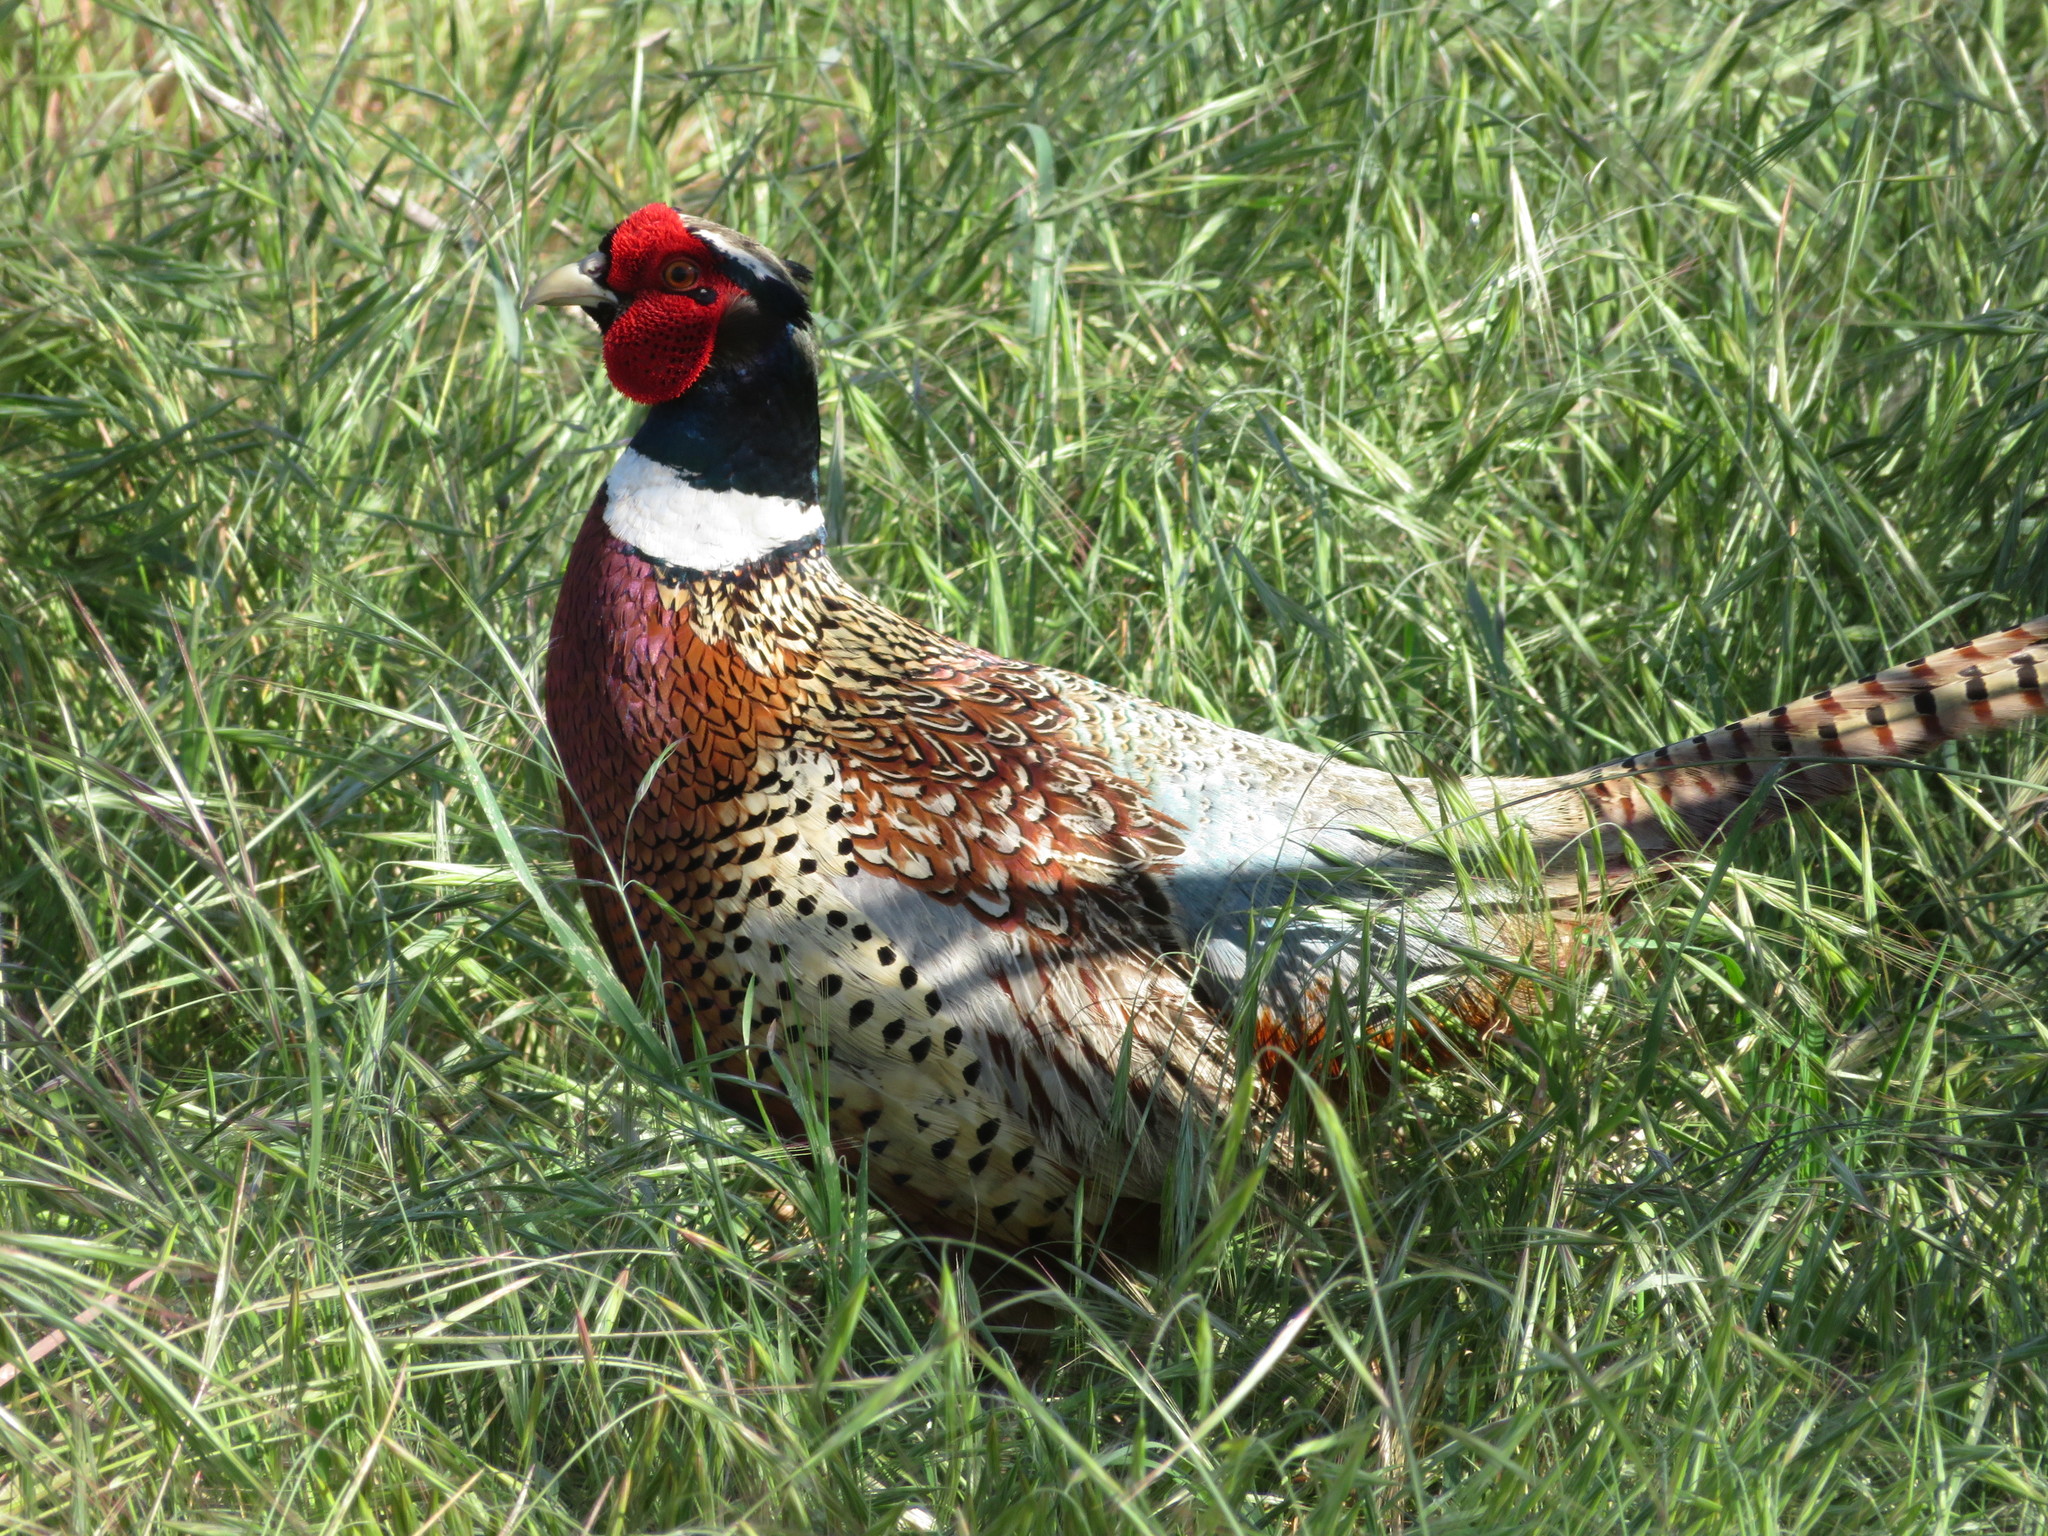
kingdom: Animalia
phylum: Chordata
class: Aves
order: Galliformes
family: Phasianidae
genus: Phasianus
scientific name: Phasianus colchicus
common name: Common pheasant
